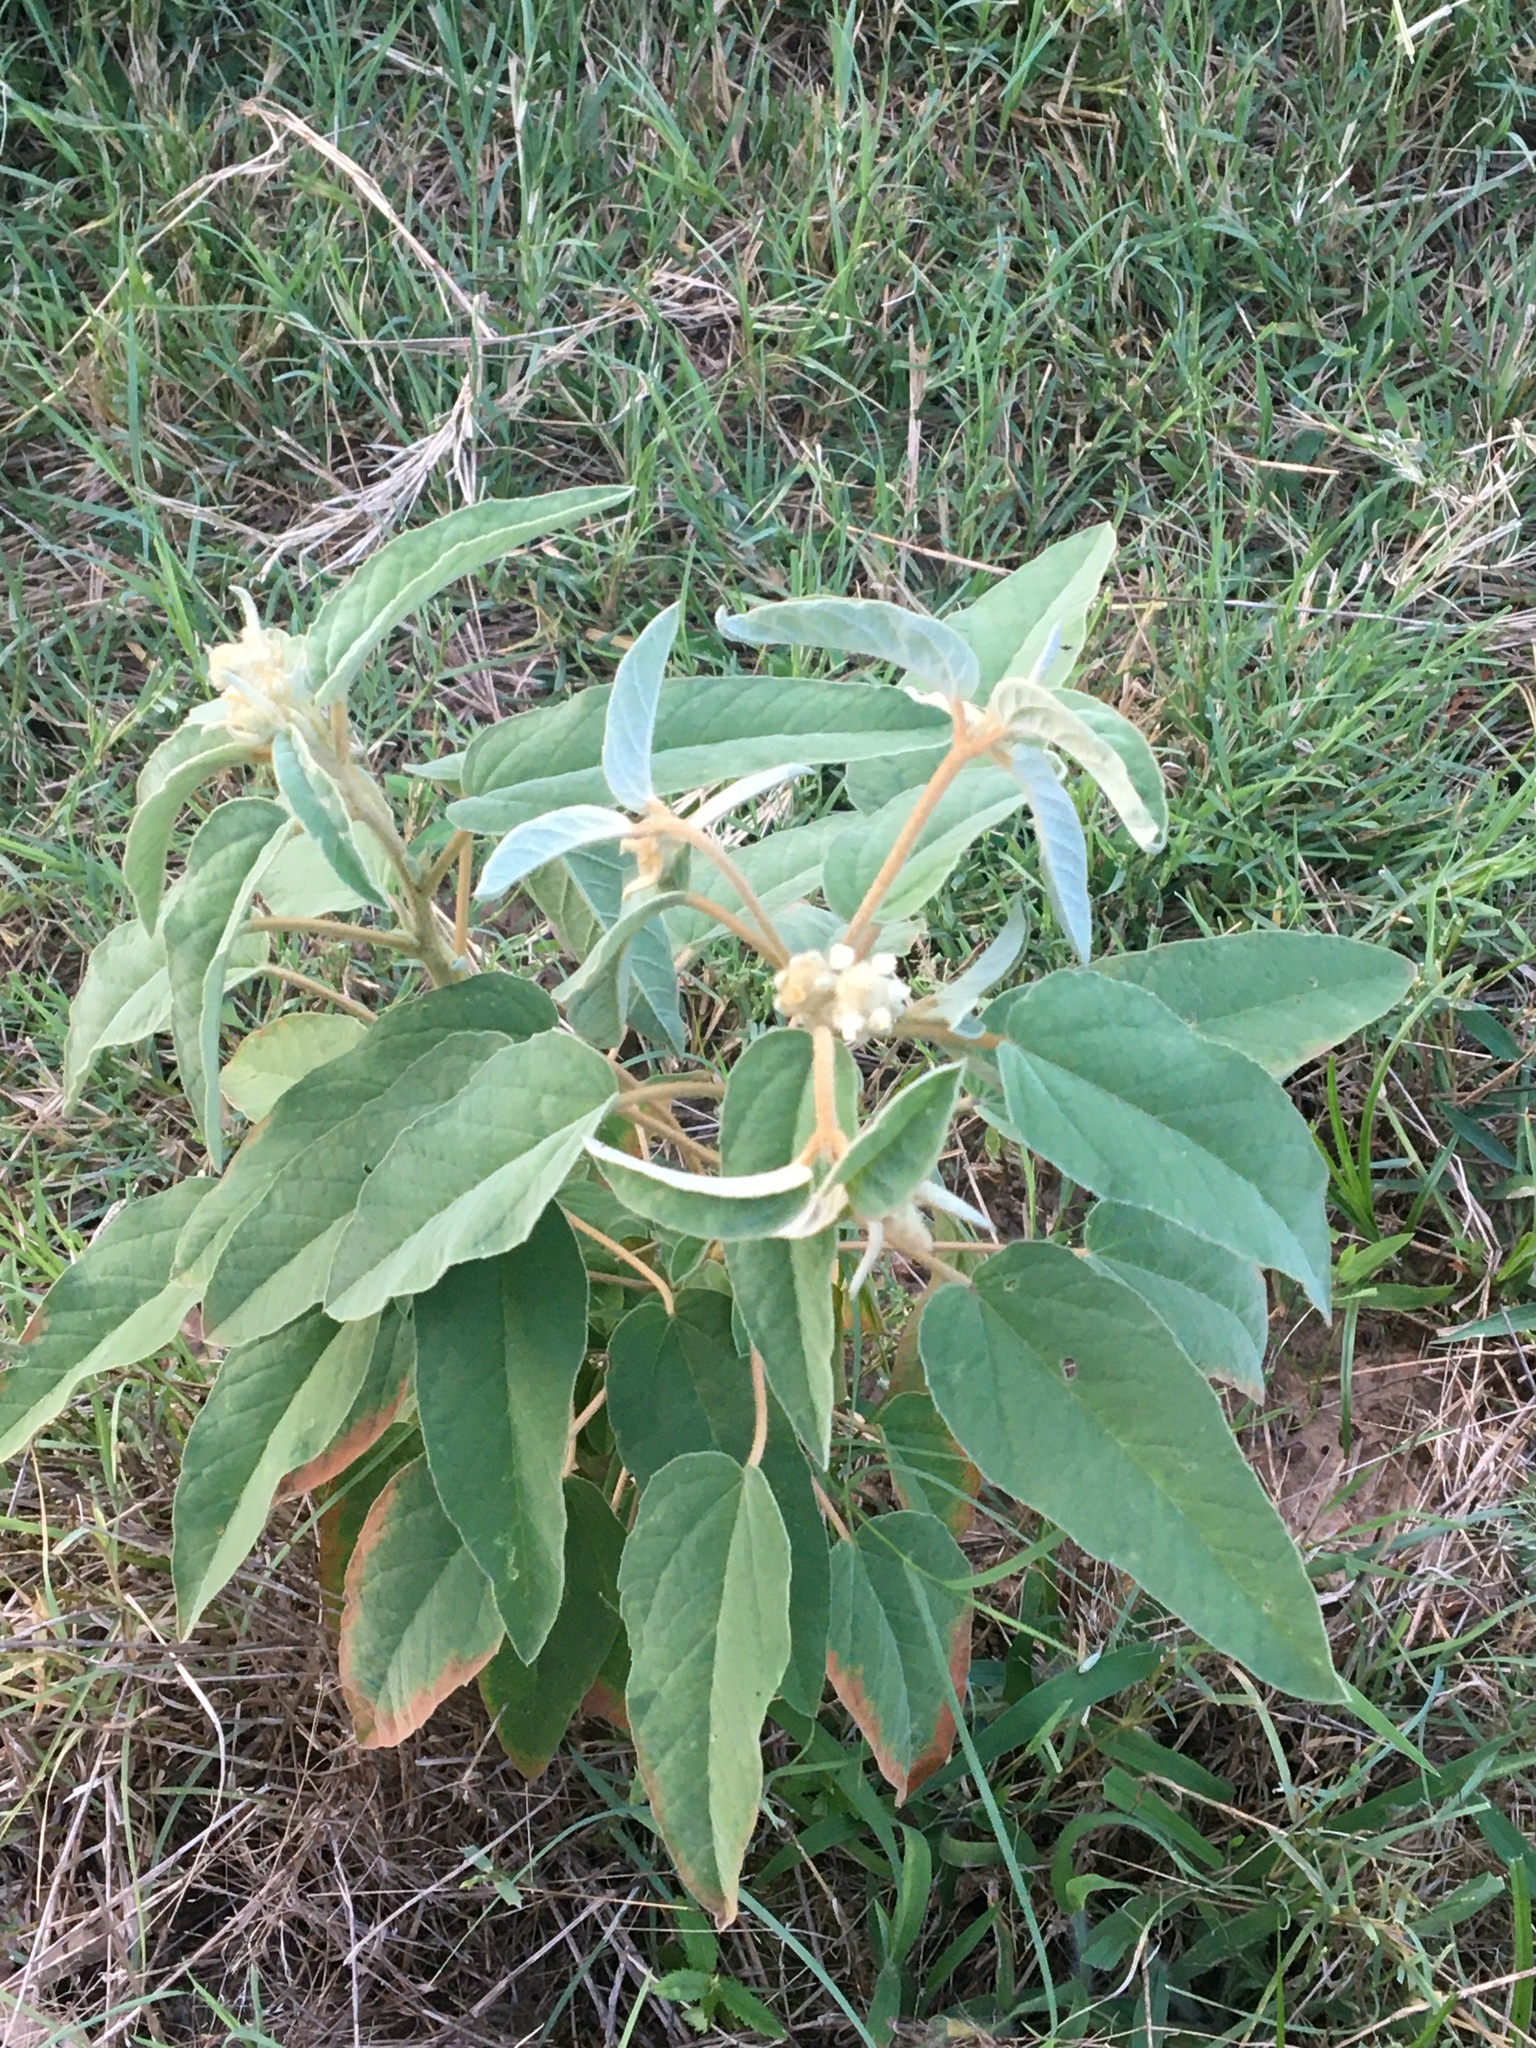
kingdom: Plantae
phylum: Tracheophyta
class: Magnoliopsida
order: Malpighiales
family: Euphorbiaceae
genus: Croton
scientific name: Croton lindheimeri
